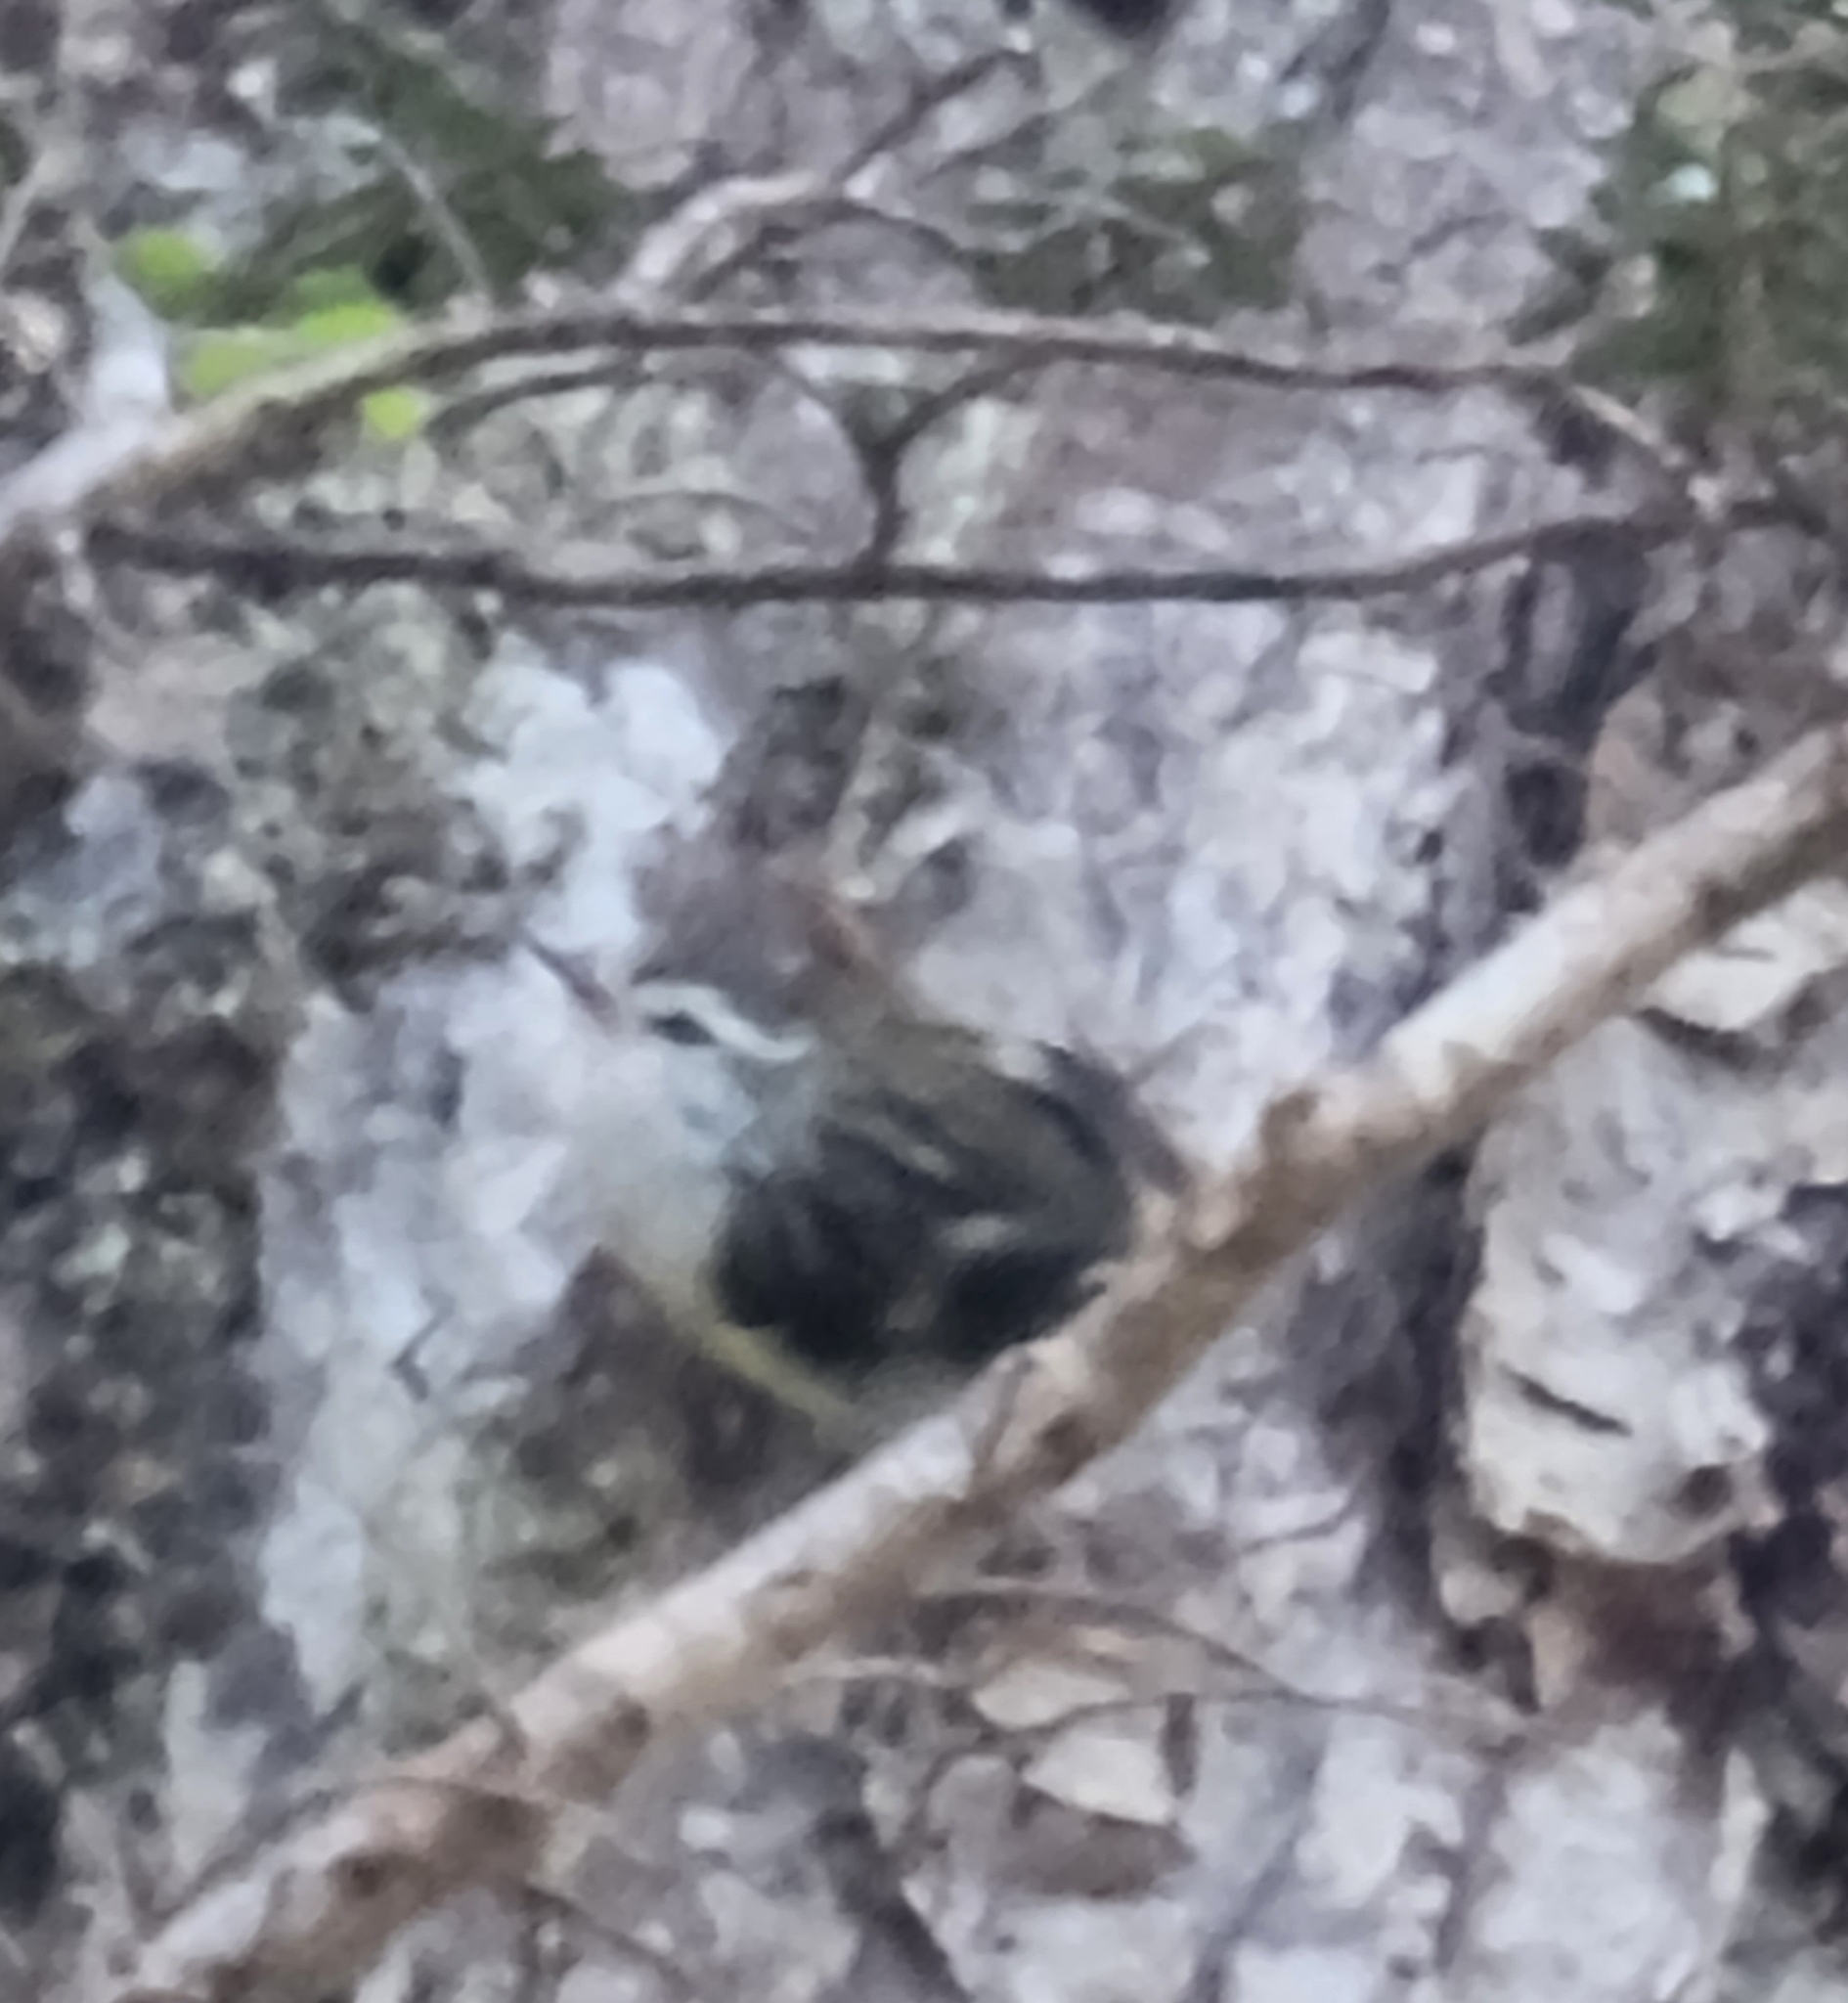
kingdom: Animalia
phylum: Chordata
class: Aves
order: Passeriformes
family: Acanthisittidae
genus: Acanthisitta
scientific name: Acanthisitta chloris
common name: Rifleman
